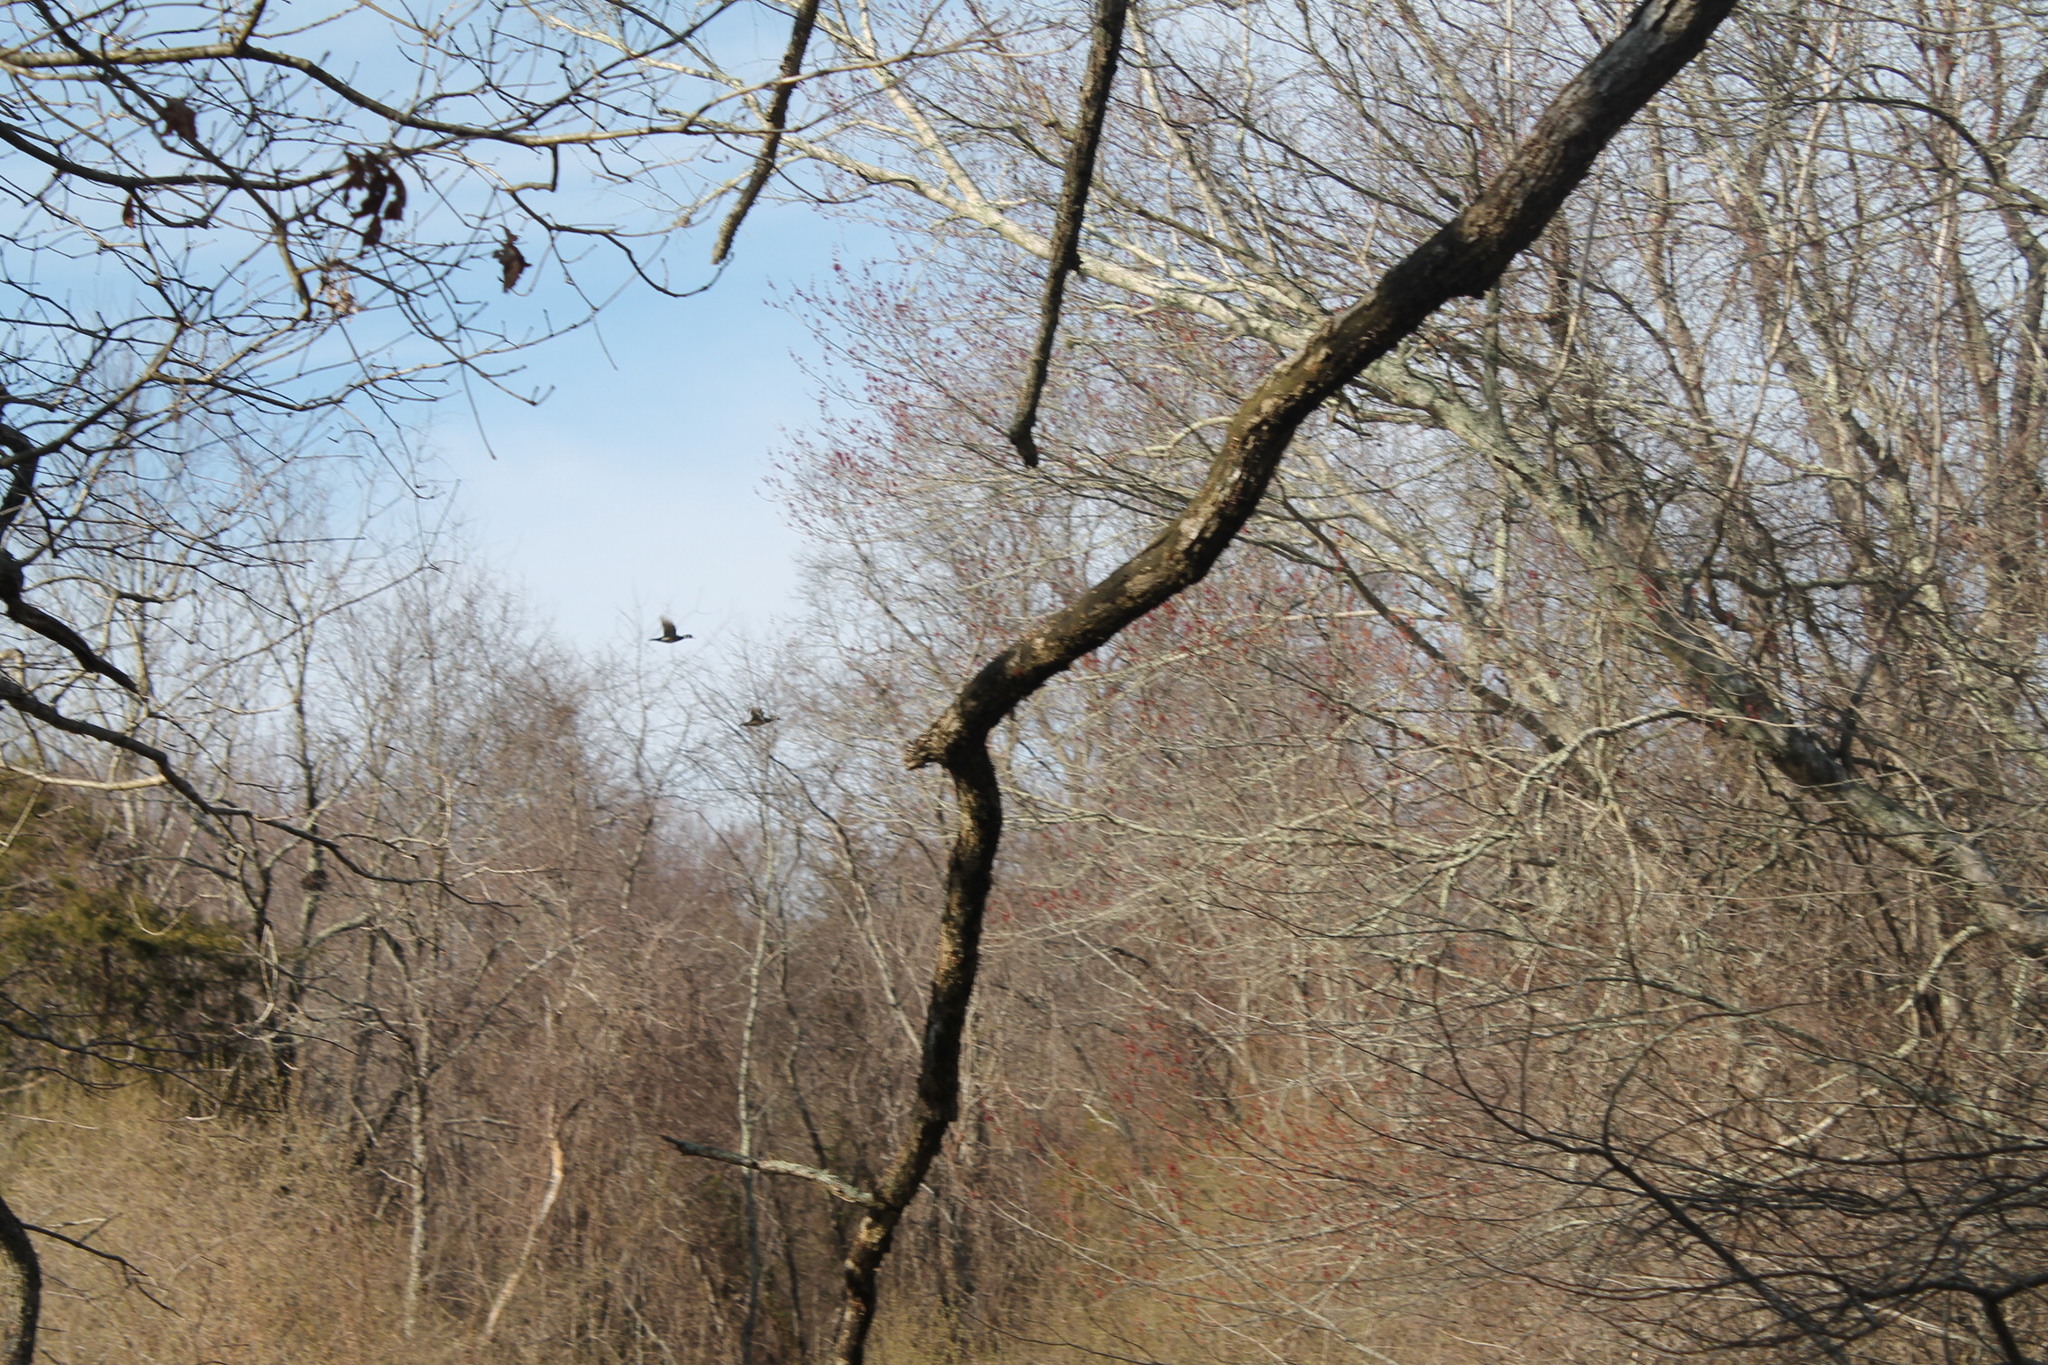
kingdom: Animalia
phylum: Chordata
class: Aves
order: Anseriformes
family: Anatidae
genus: Aix
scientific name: Aix sponsa
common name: Wood duck
